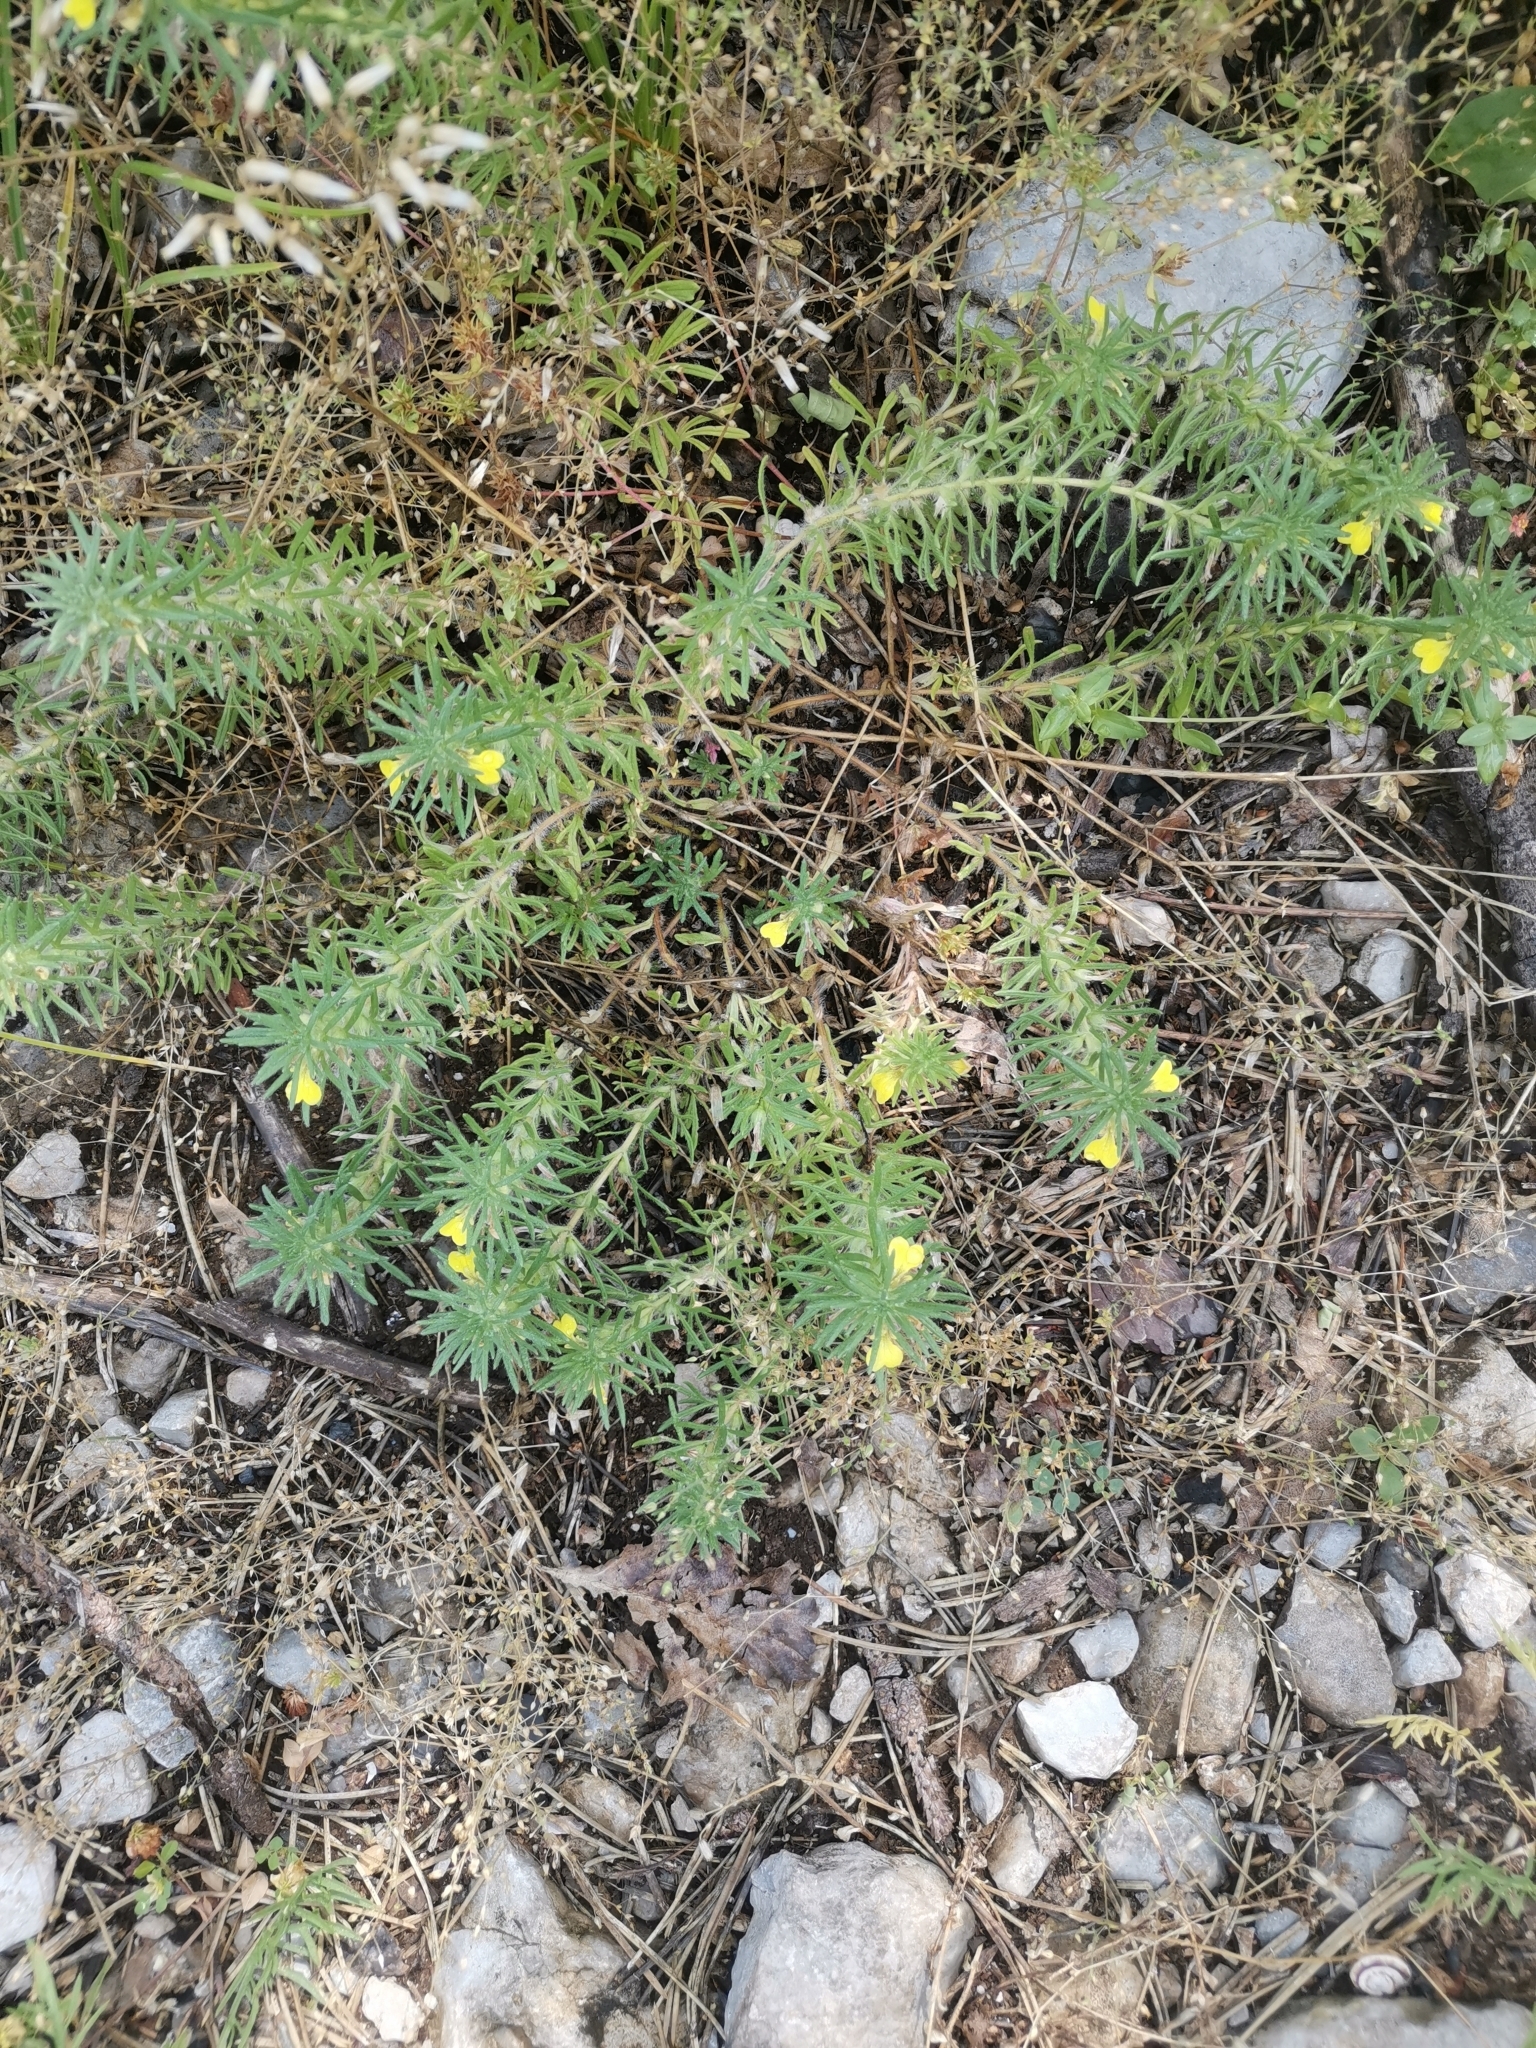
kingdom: Plantae
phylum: Tracheophyta
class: Magnoliopsida
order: Lamiales
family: Lamiaceae
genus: Ajuga
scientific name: Ajuga chamaepitys
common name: Ground-pine
